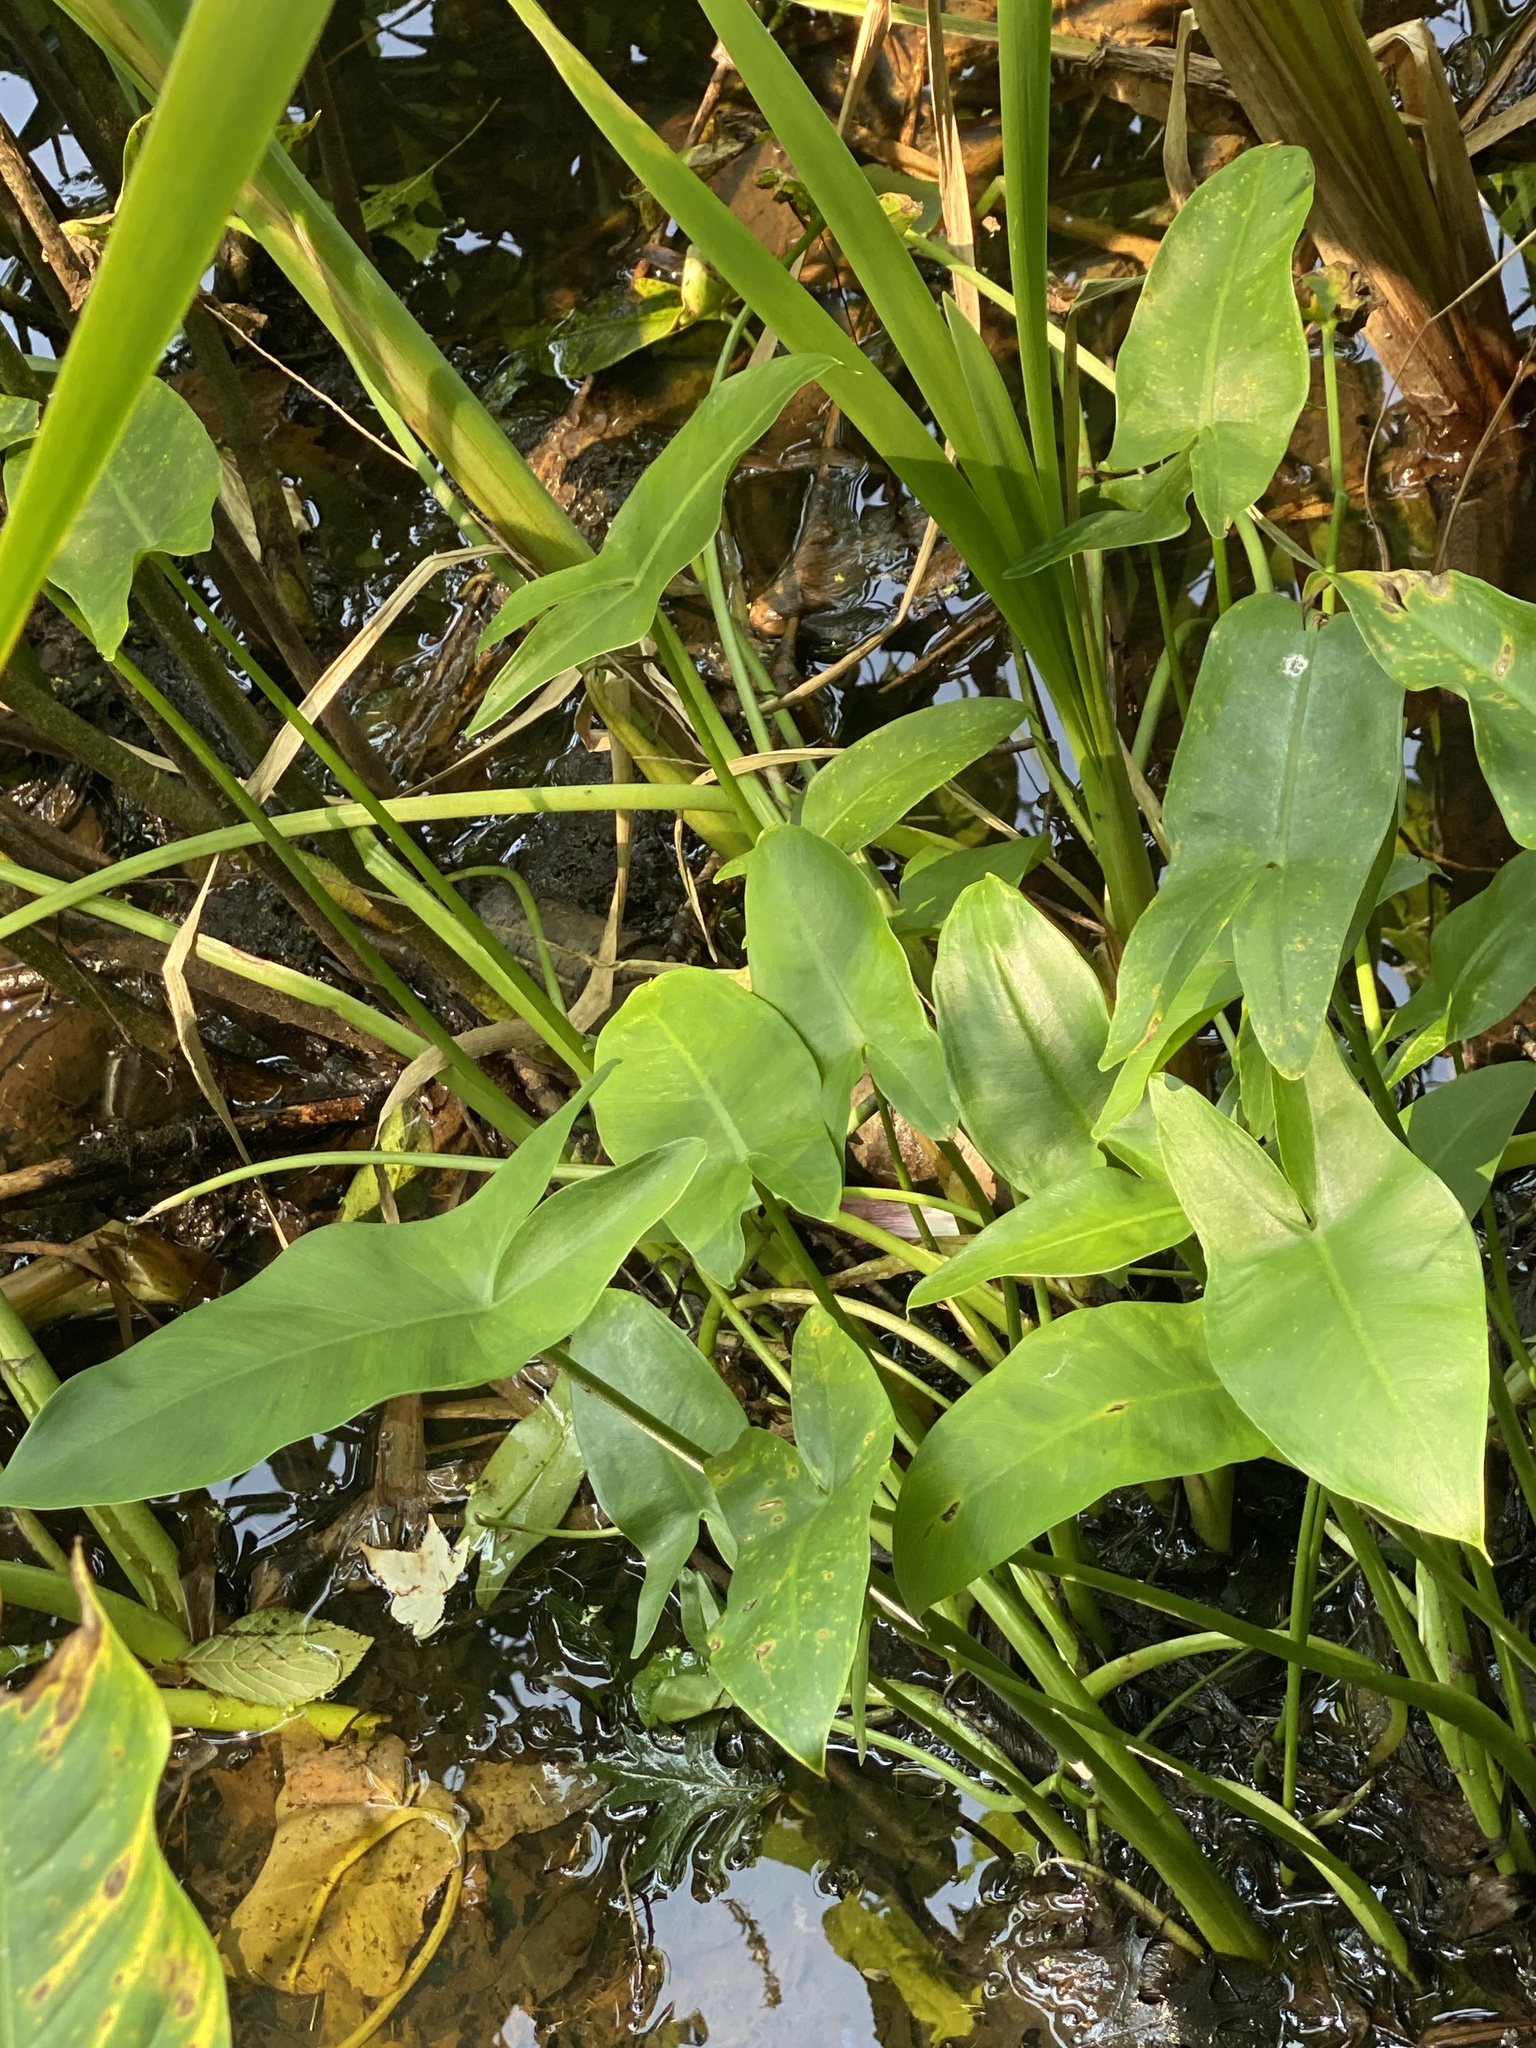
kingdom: Plantae
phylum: Tracheophyta
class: Liliopsida
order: Alismatales
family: Araceae
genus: Peltandra
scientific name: Peltandra virginica
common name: Arrow arum
